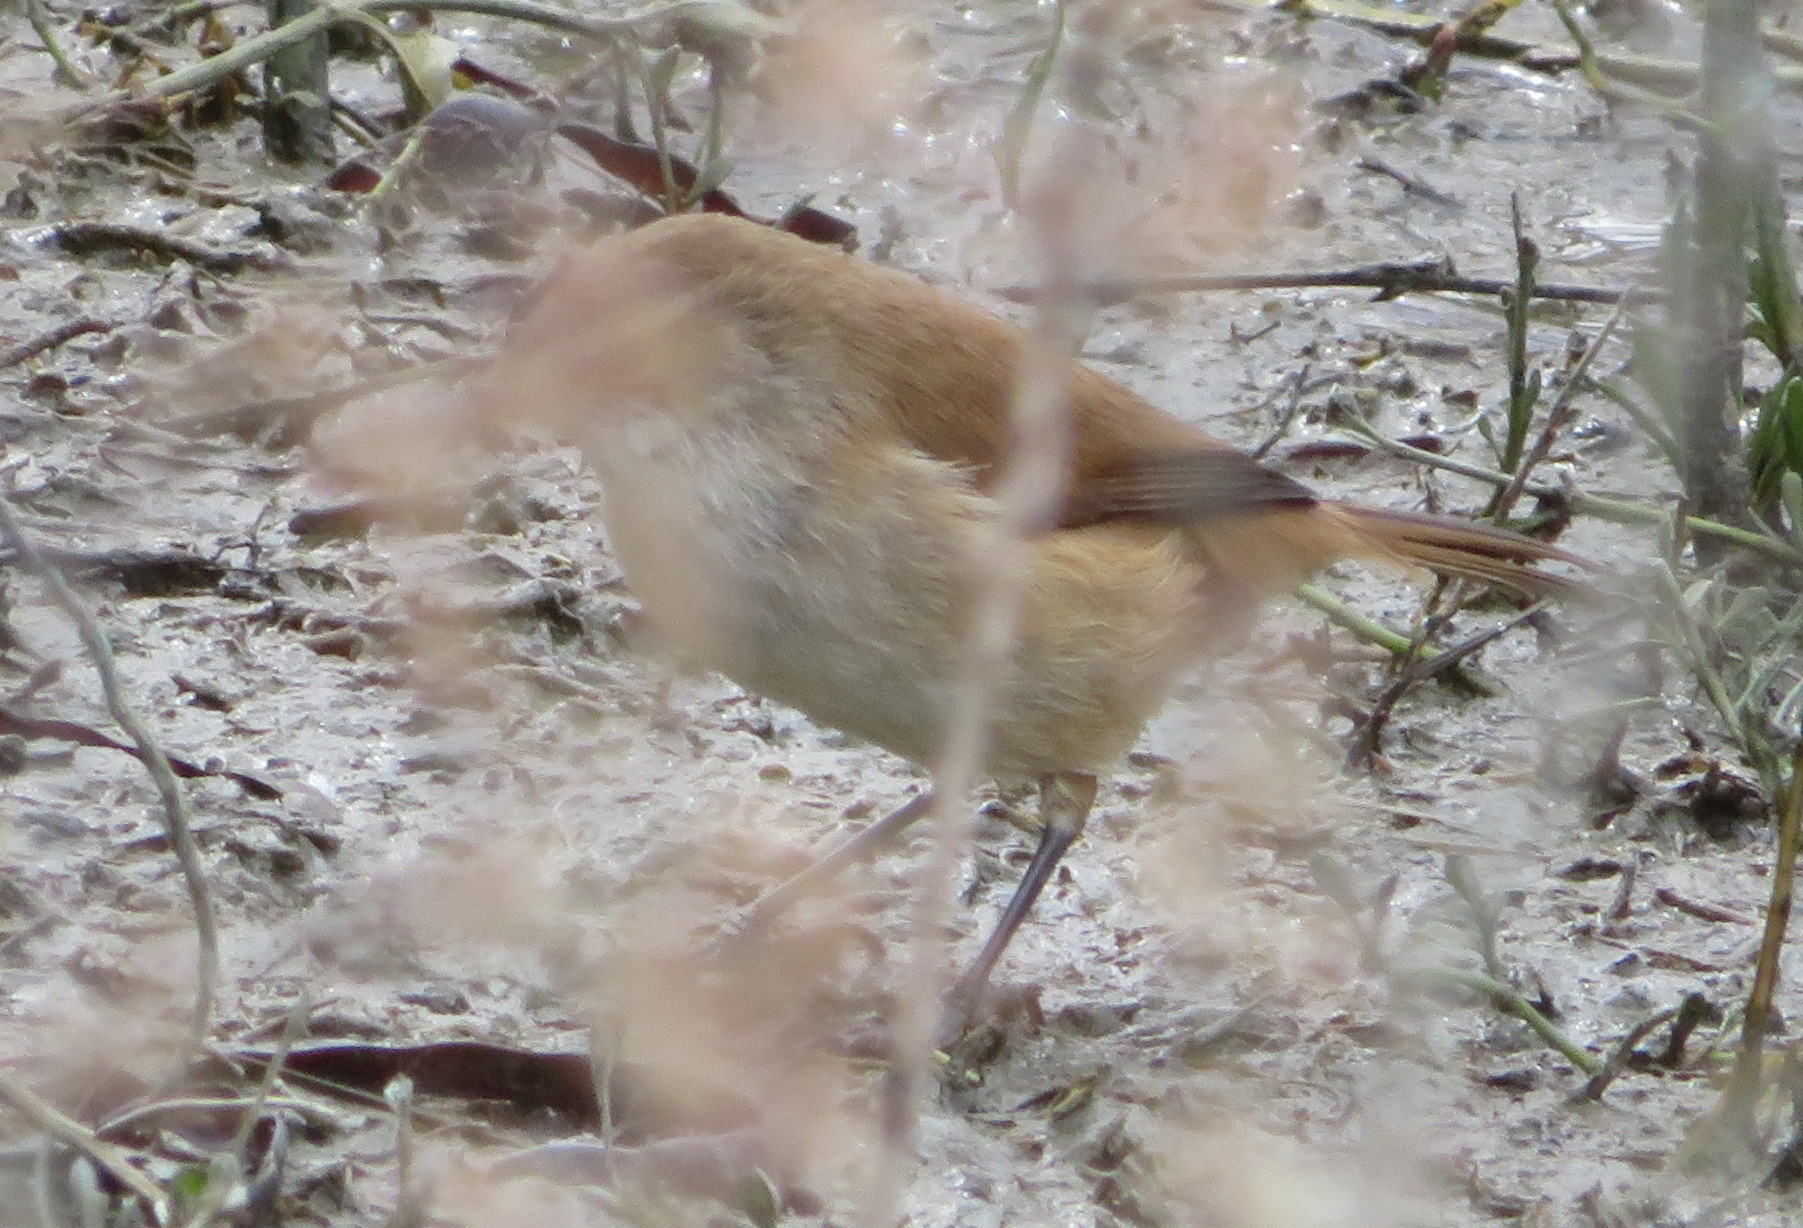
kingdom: Animalia
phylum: Chordata
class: Aves
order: Passeriformes
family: Acrocephalidae
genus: Acrocephalus
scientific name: Acrocephalus gracilirostris
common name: Lesser swamp warbler
